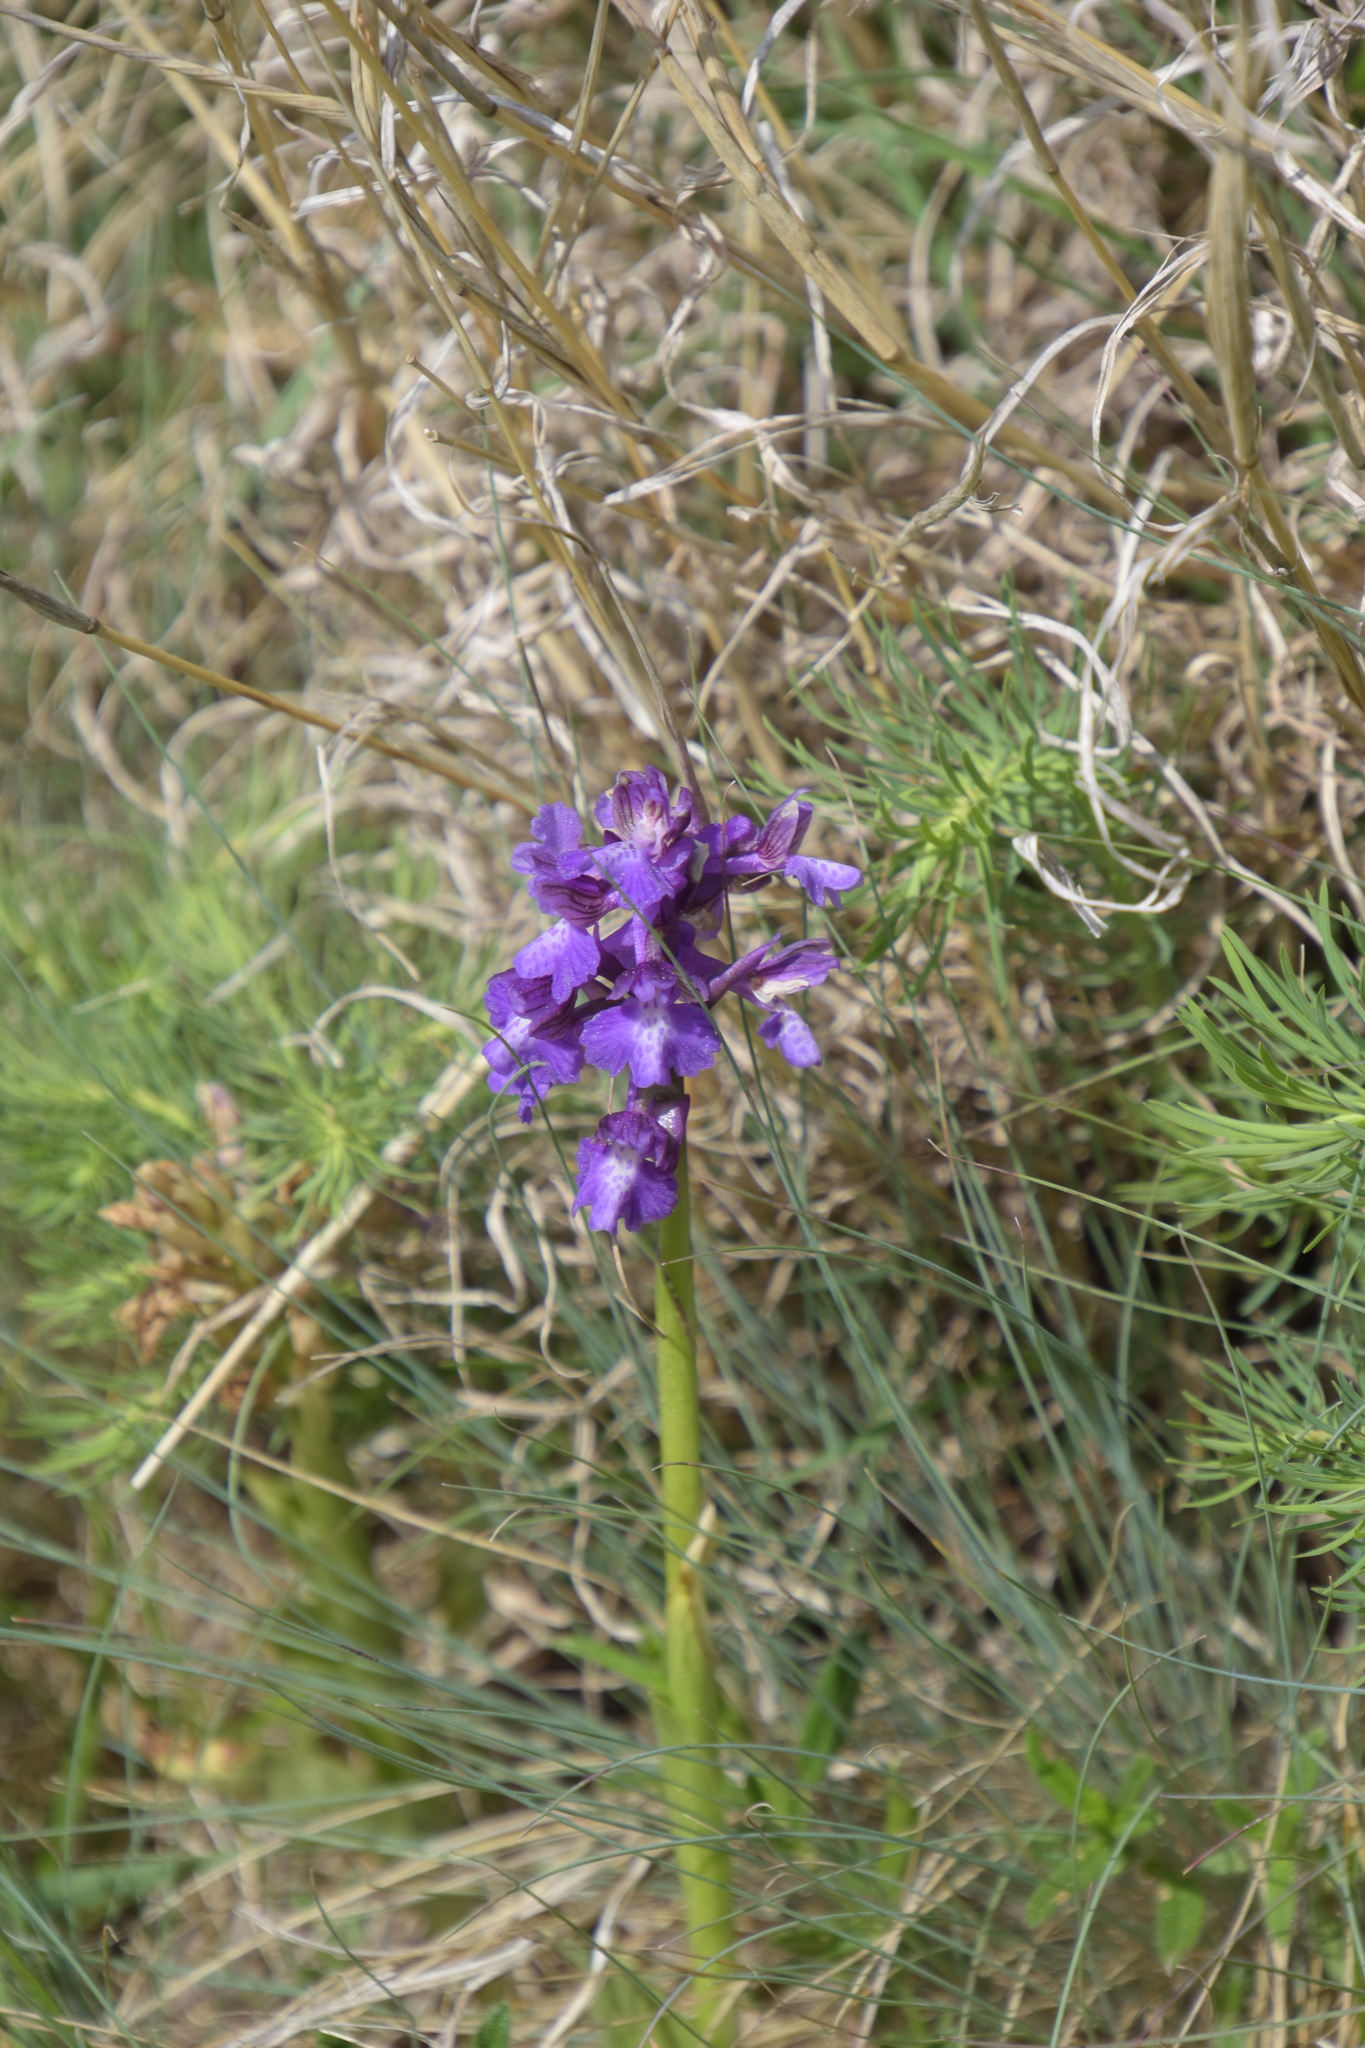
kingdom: Plantae
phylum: Tracheophyta
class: Liliopsida
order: Asparagales
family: Orchidaceae
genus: Anacamptis
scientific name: Anacamptis morio
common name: Green-winged orchid
